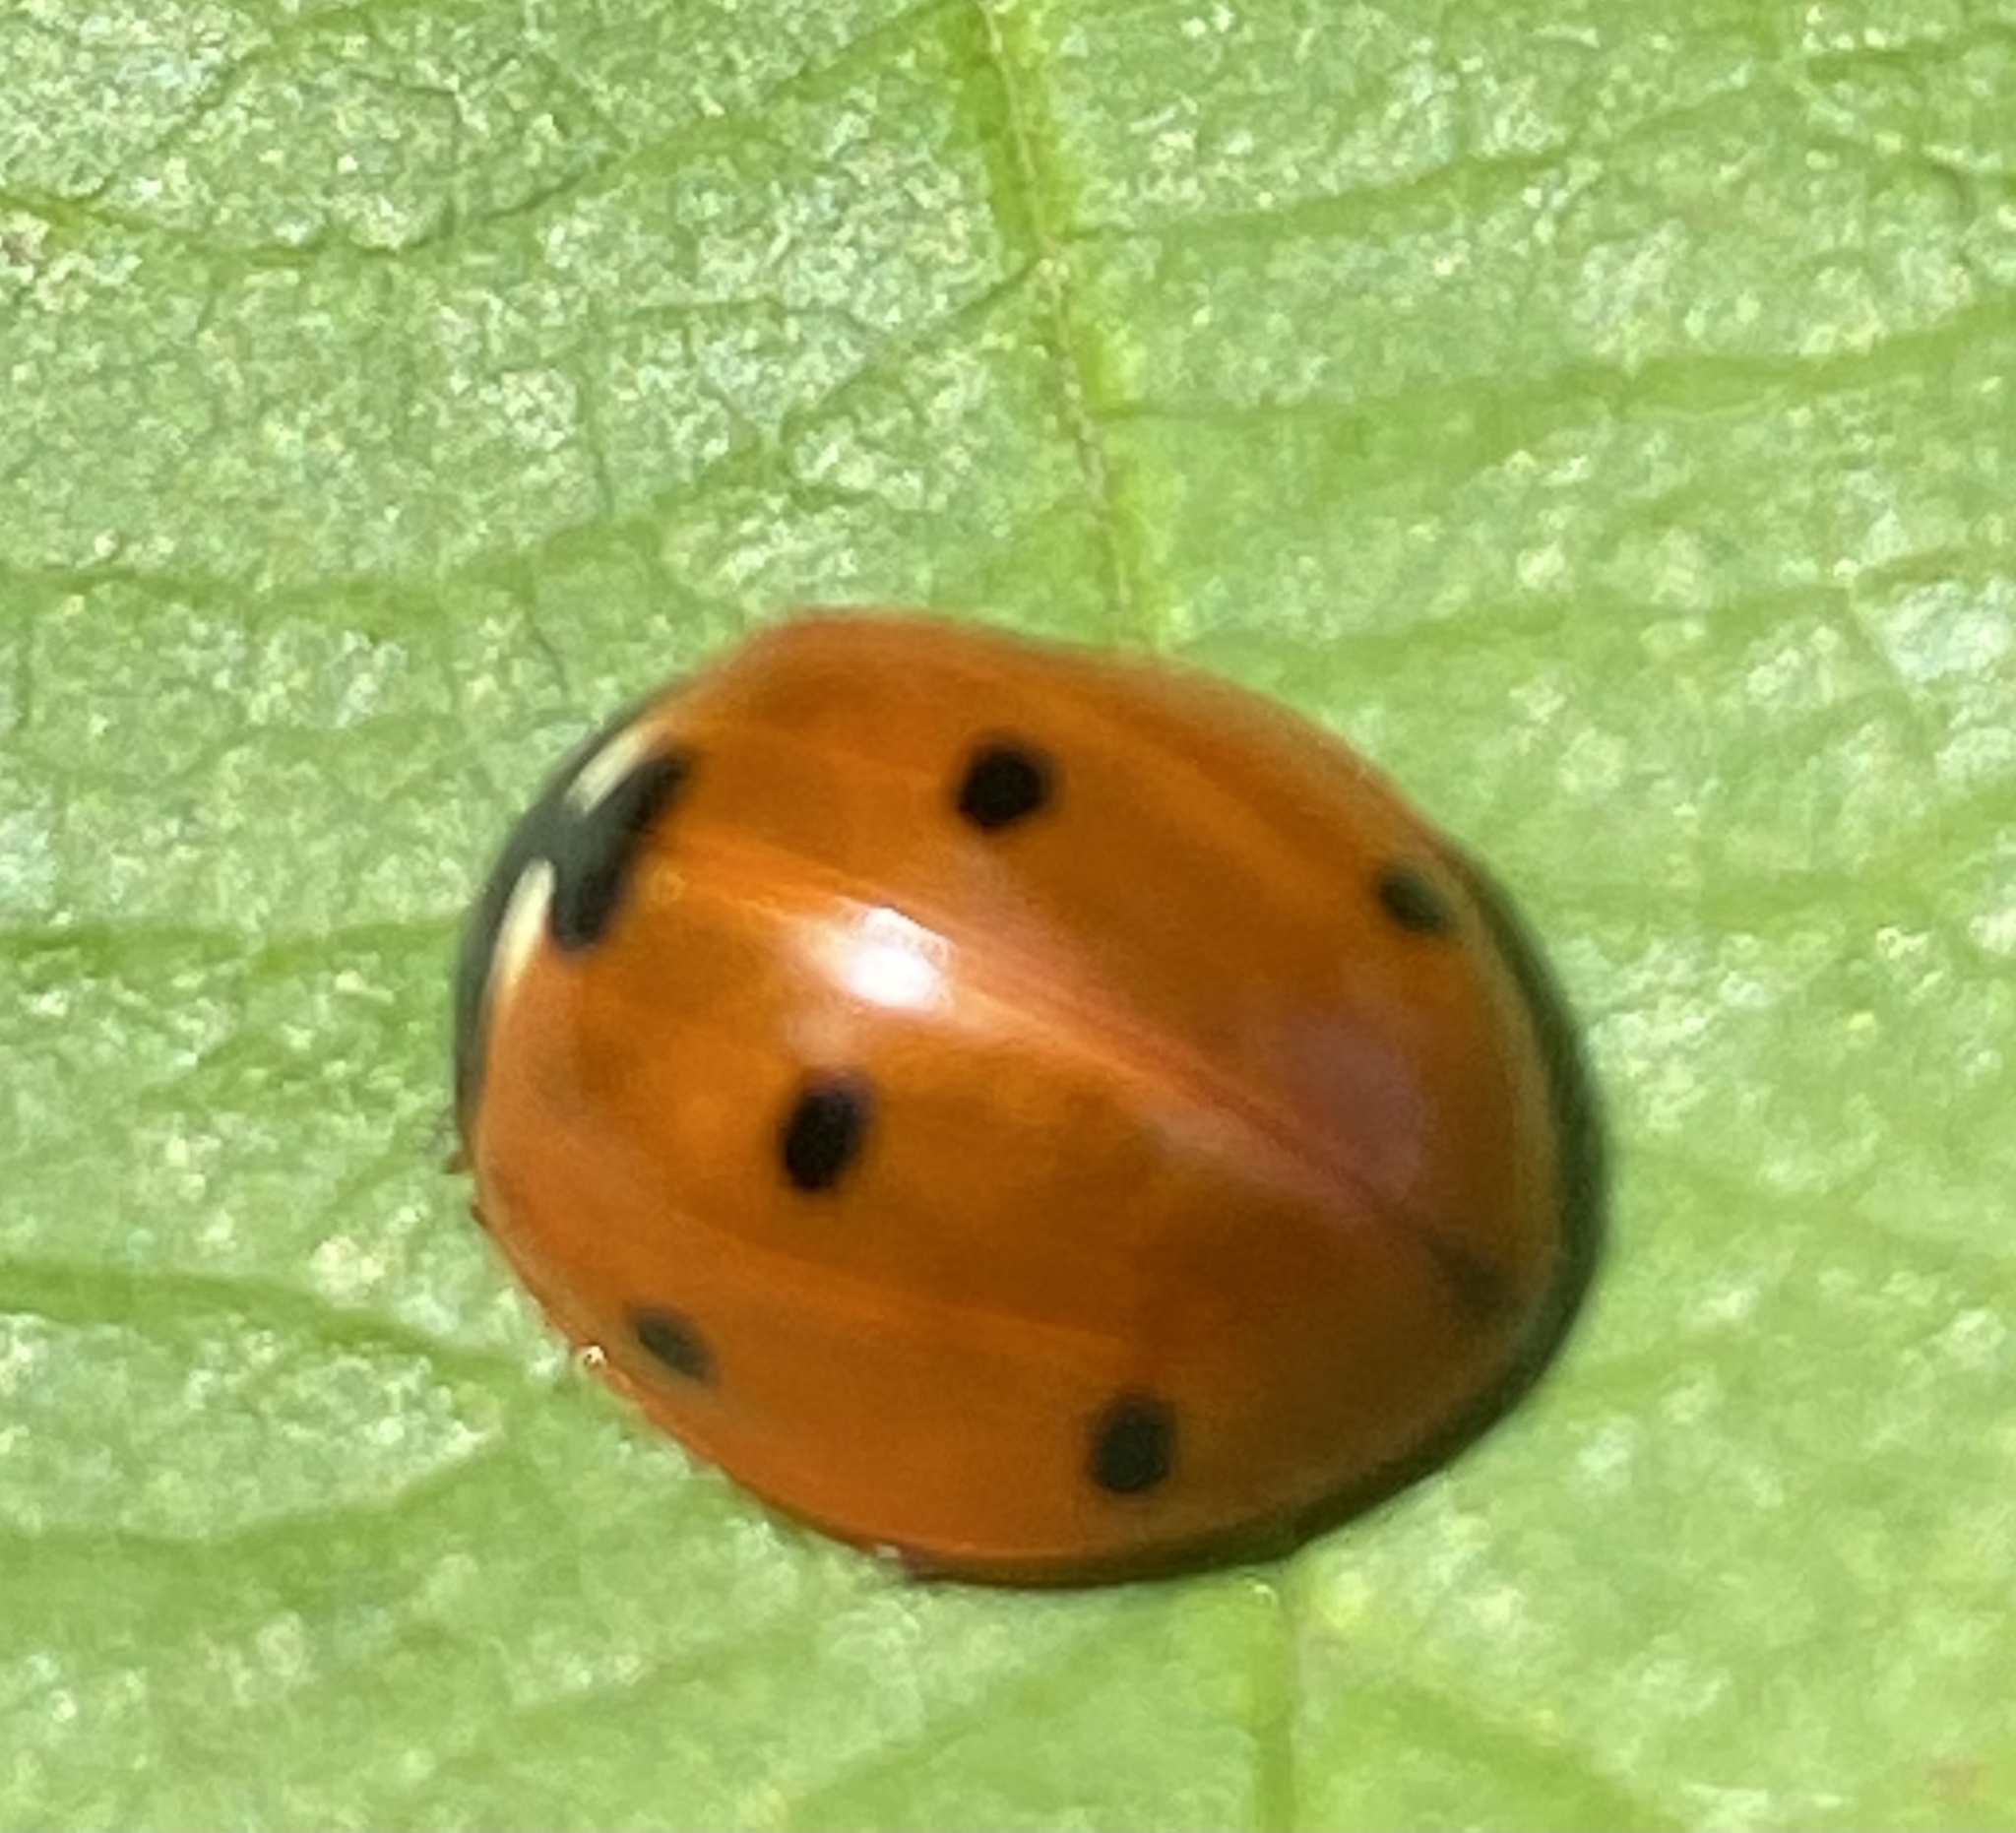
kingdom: Animalia
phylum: Arthropoda
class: Insecta
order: Coleoptera
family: Coccinellidae
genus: Coccinella
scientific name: Coccinella septempunctata
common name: Sevenspotted lady beetle
